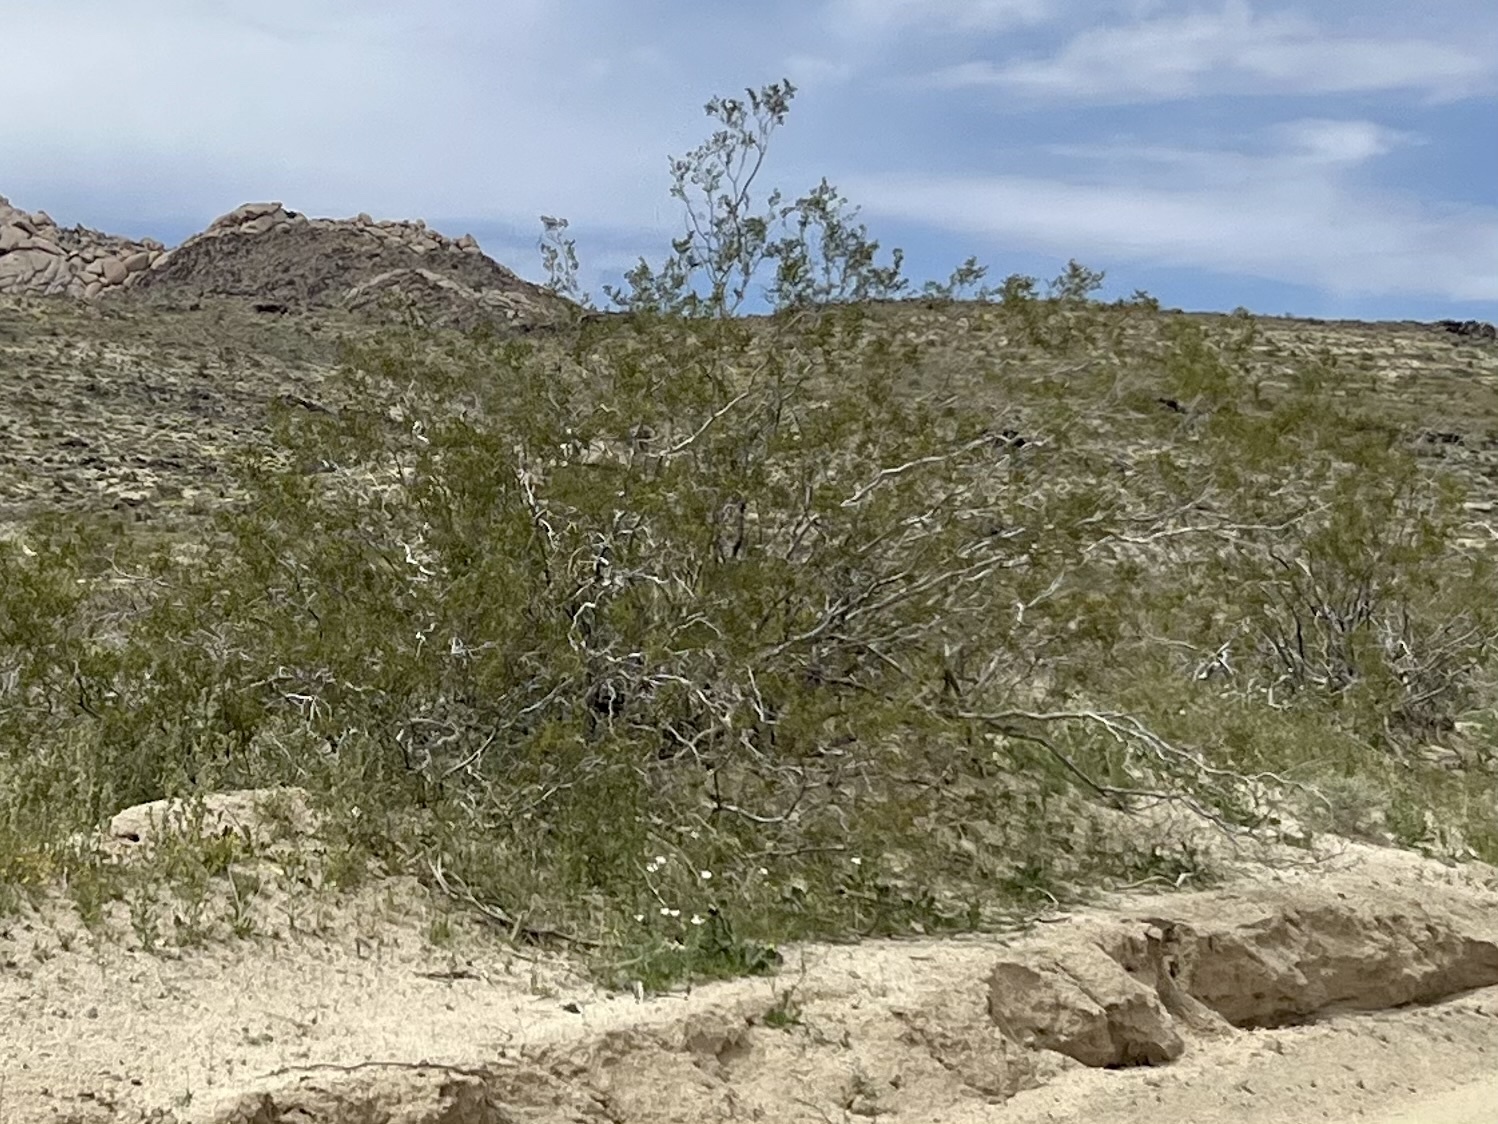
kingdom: Plantae
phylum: Tracheophyta
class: Magnoliopsida
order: Zygophyllales
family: Zygophyllaceae
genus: Larrea
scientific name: Larrea tridentata
